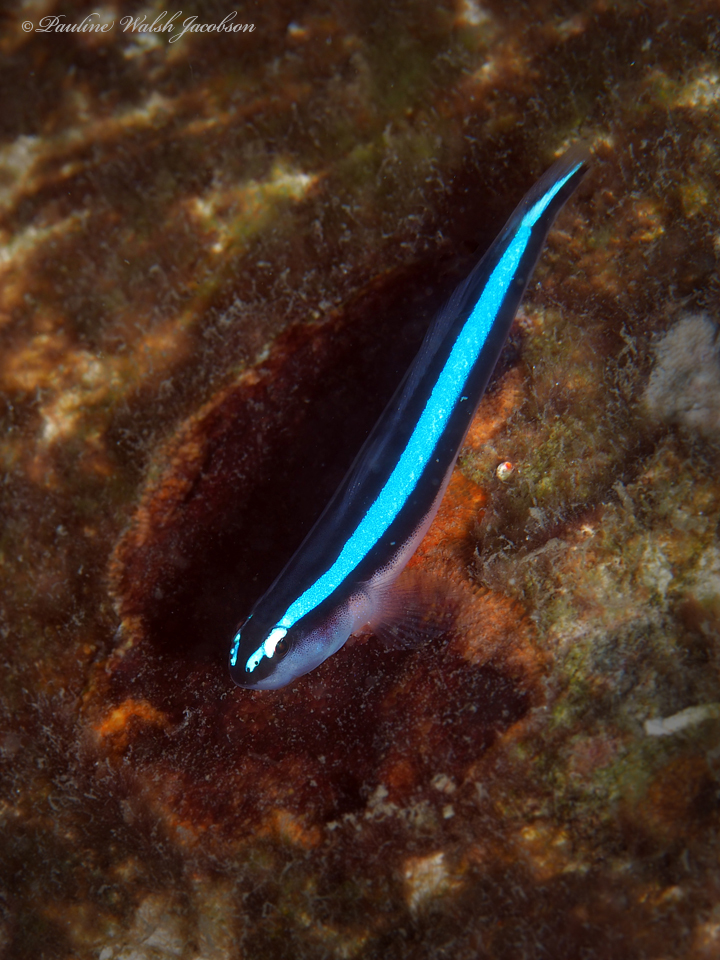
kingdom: Animalia
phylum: Chordata
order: Perciformes
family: Gobiidae
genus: Elacatinus
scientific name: Elacatinus oceanops
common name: Northern neon goby
